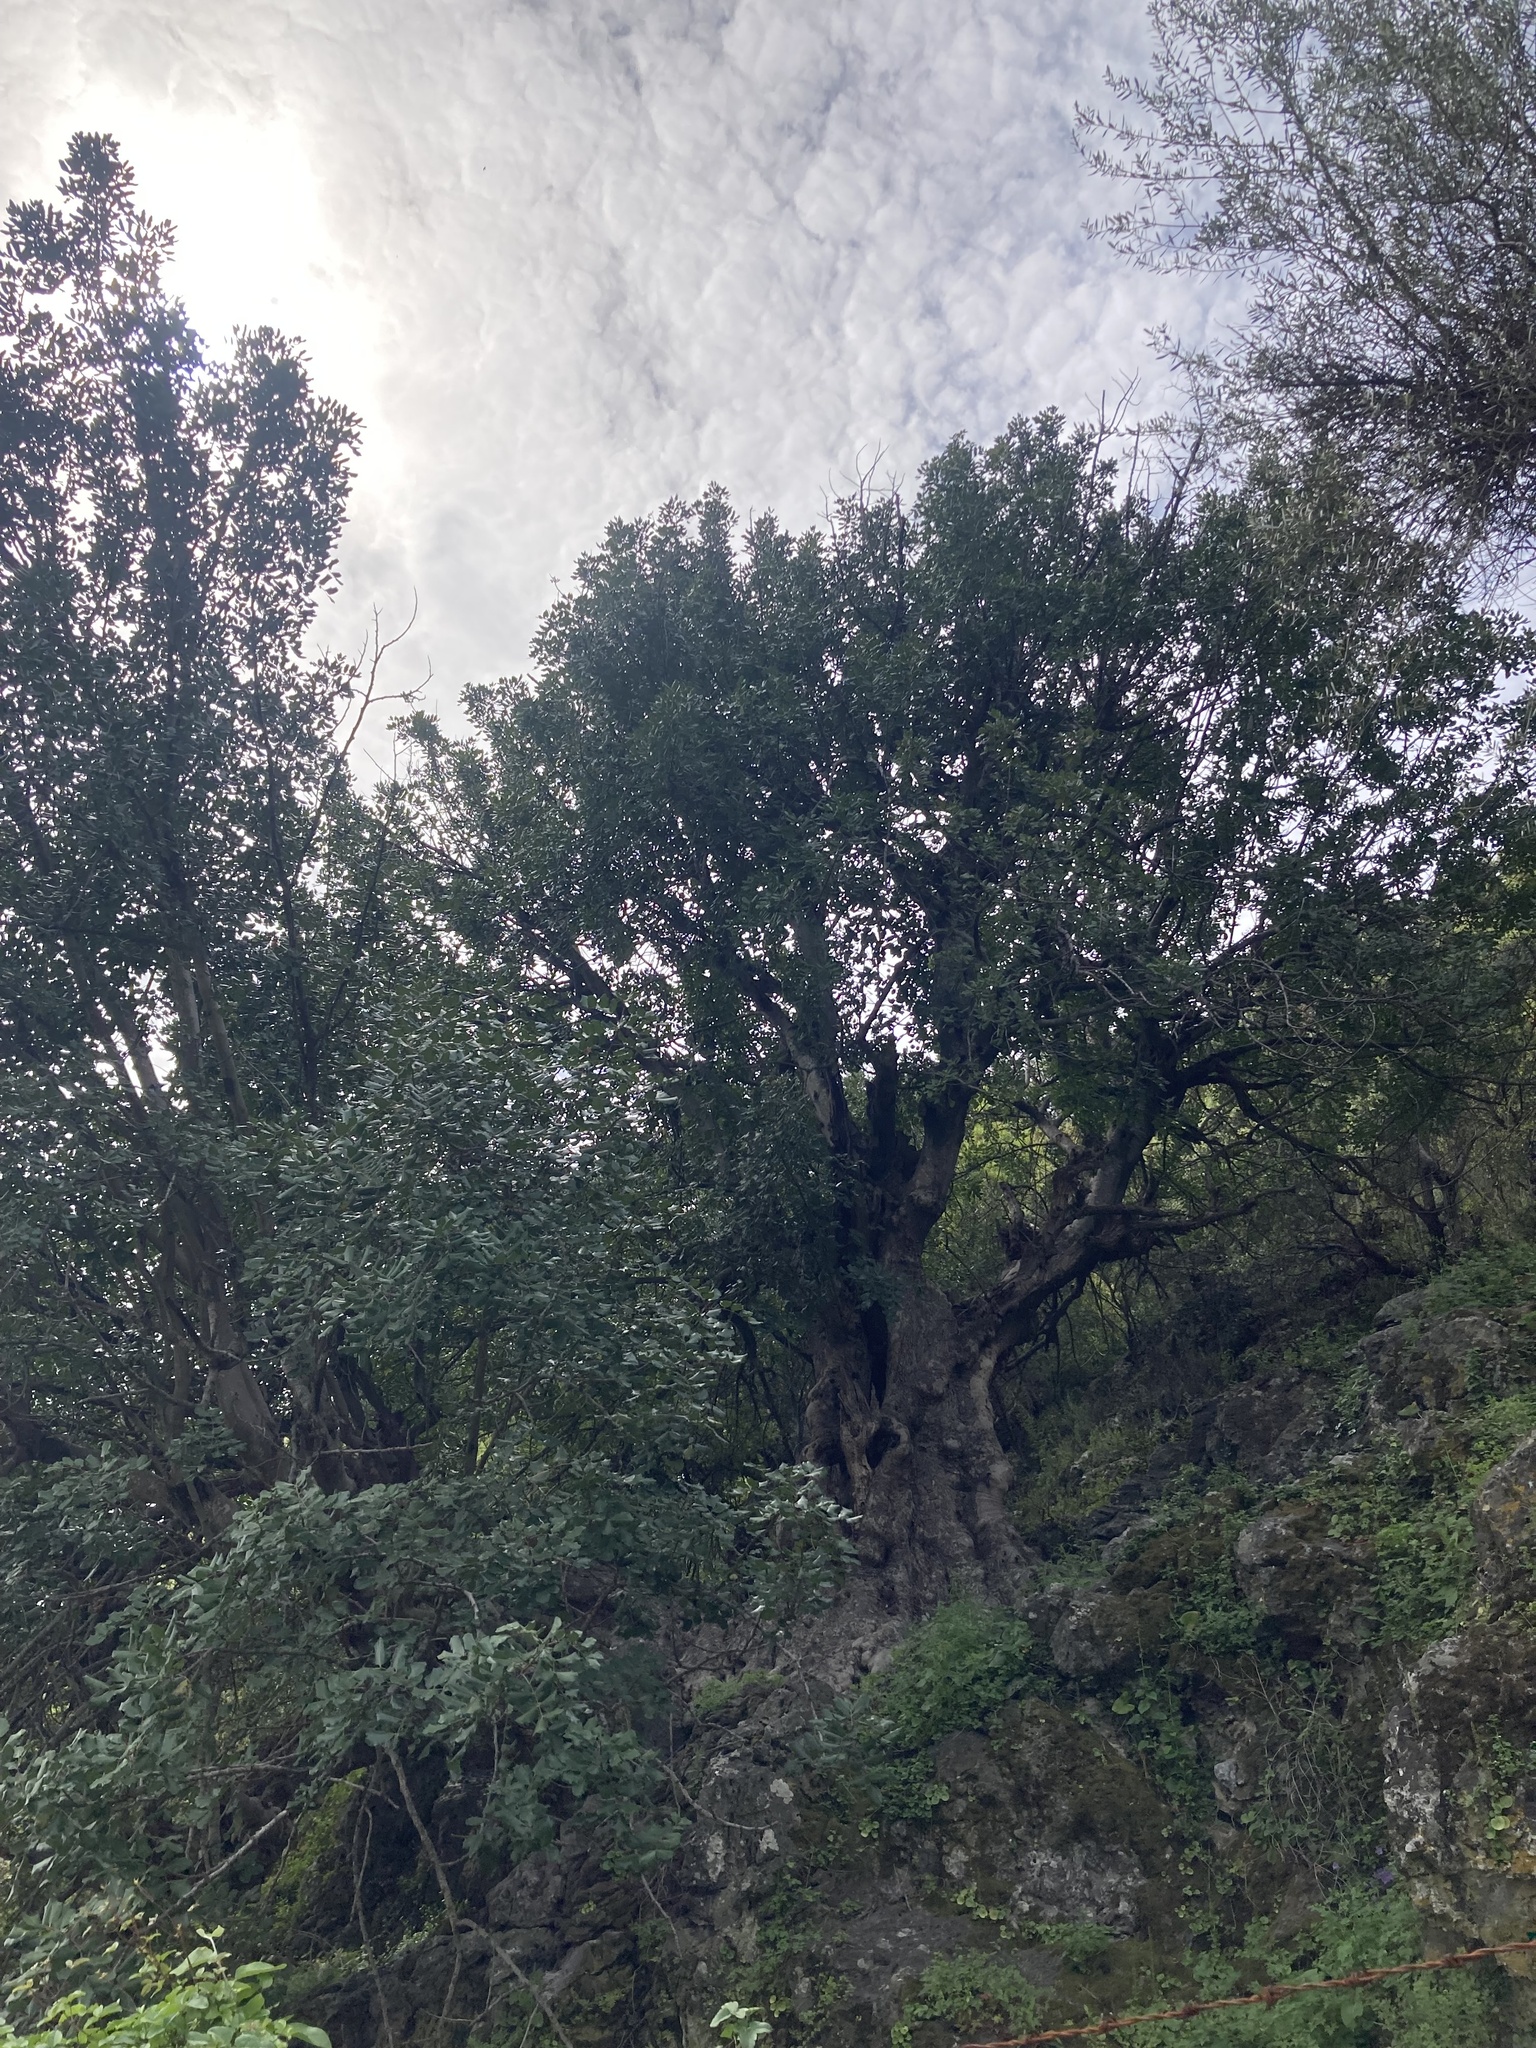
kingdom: Plantae
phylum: Tracheophyta
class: Magnoliopsida
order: Fabales
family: Fabaceae
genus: Ceratonia
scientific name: Ceratonia siliqua
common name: Carob
